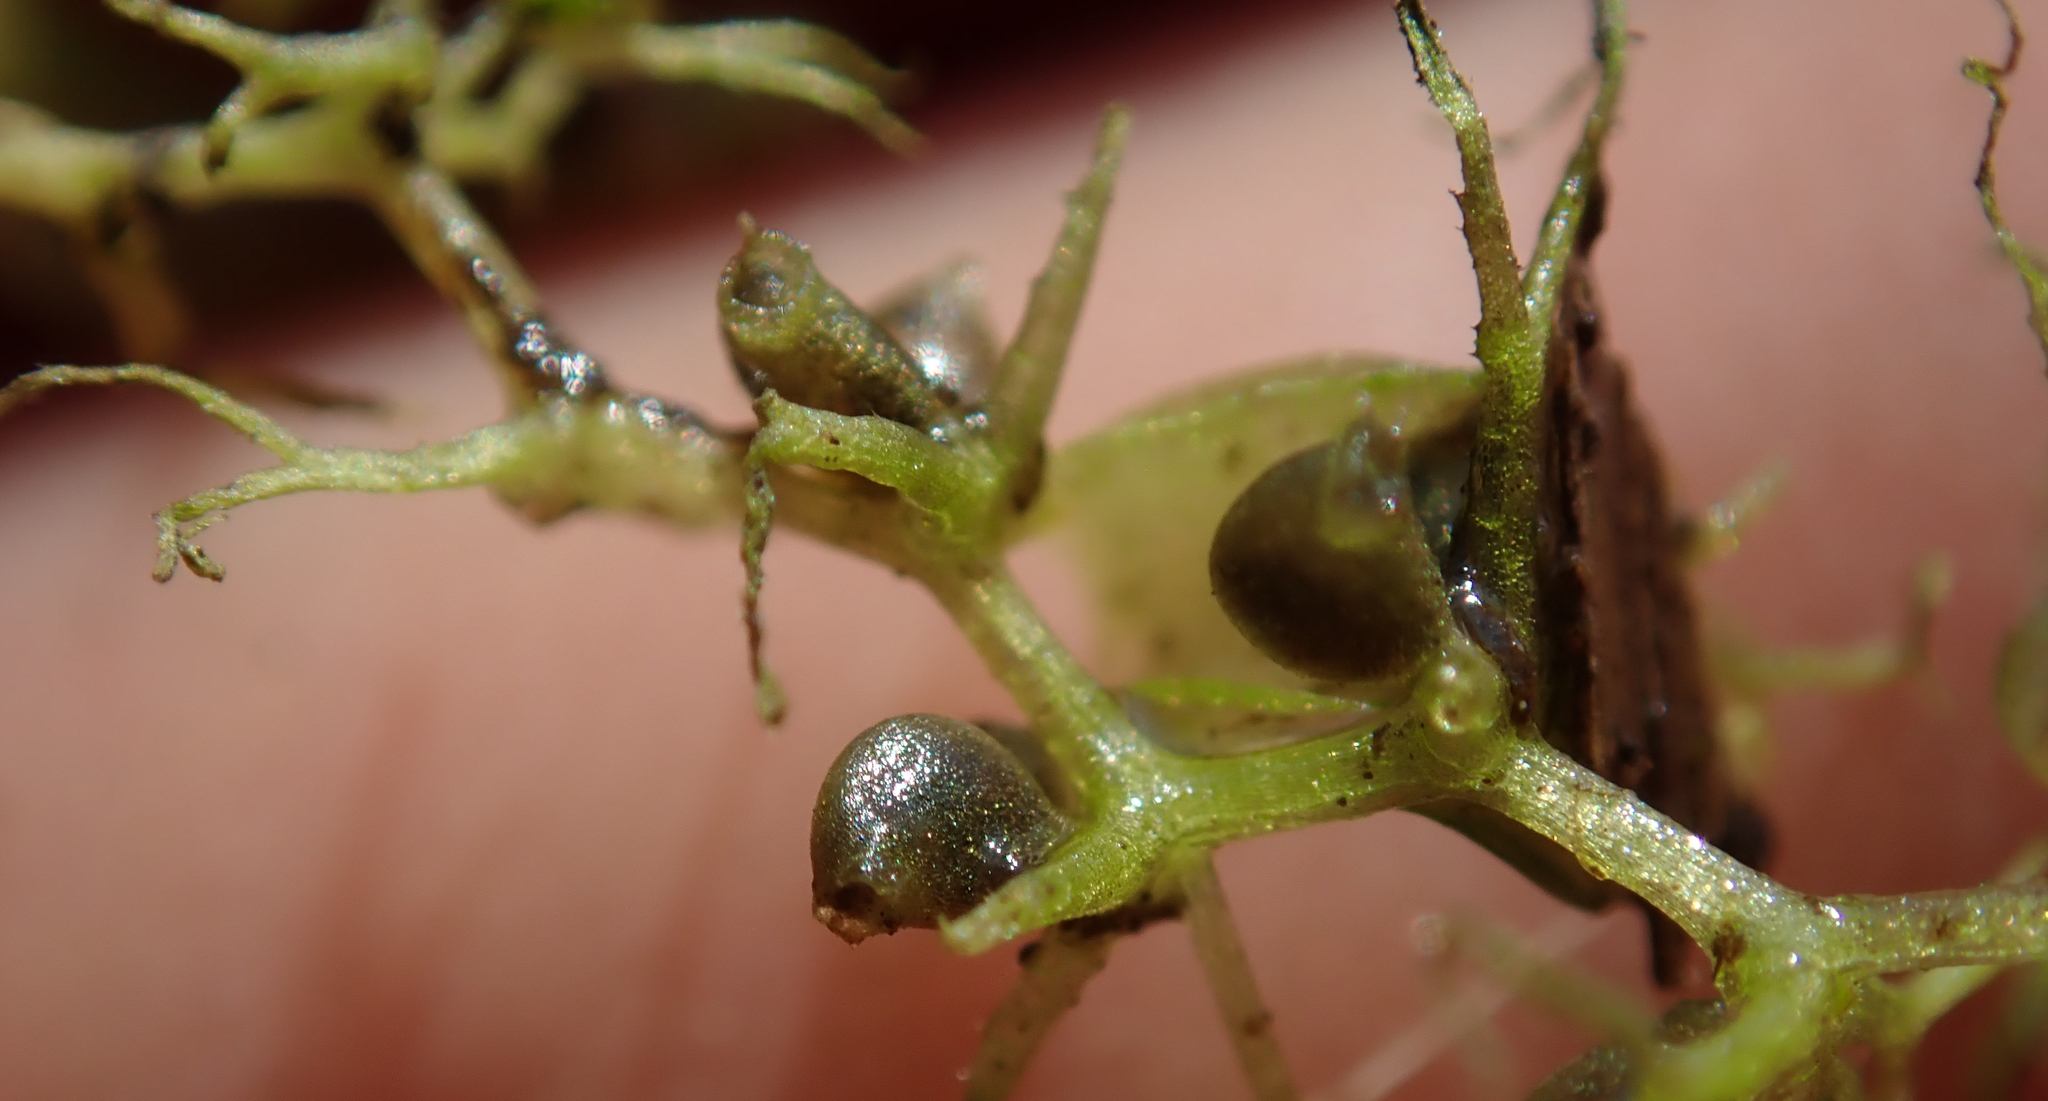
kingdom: Plantae
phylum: Tracheophyta
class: Magnoliopsida
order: Lamiales
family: Lentibulariaceae
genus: Utricularia
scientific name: Utricularia raynalii
